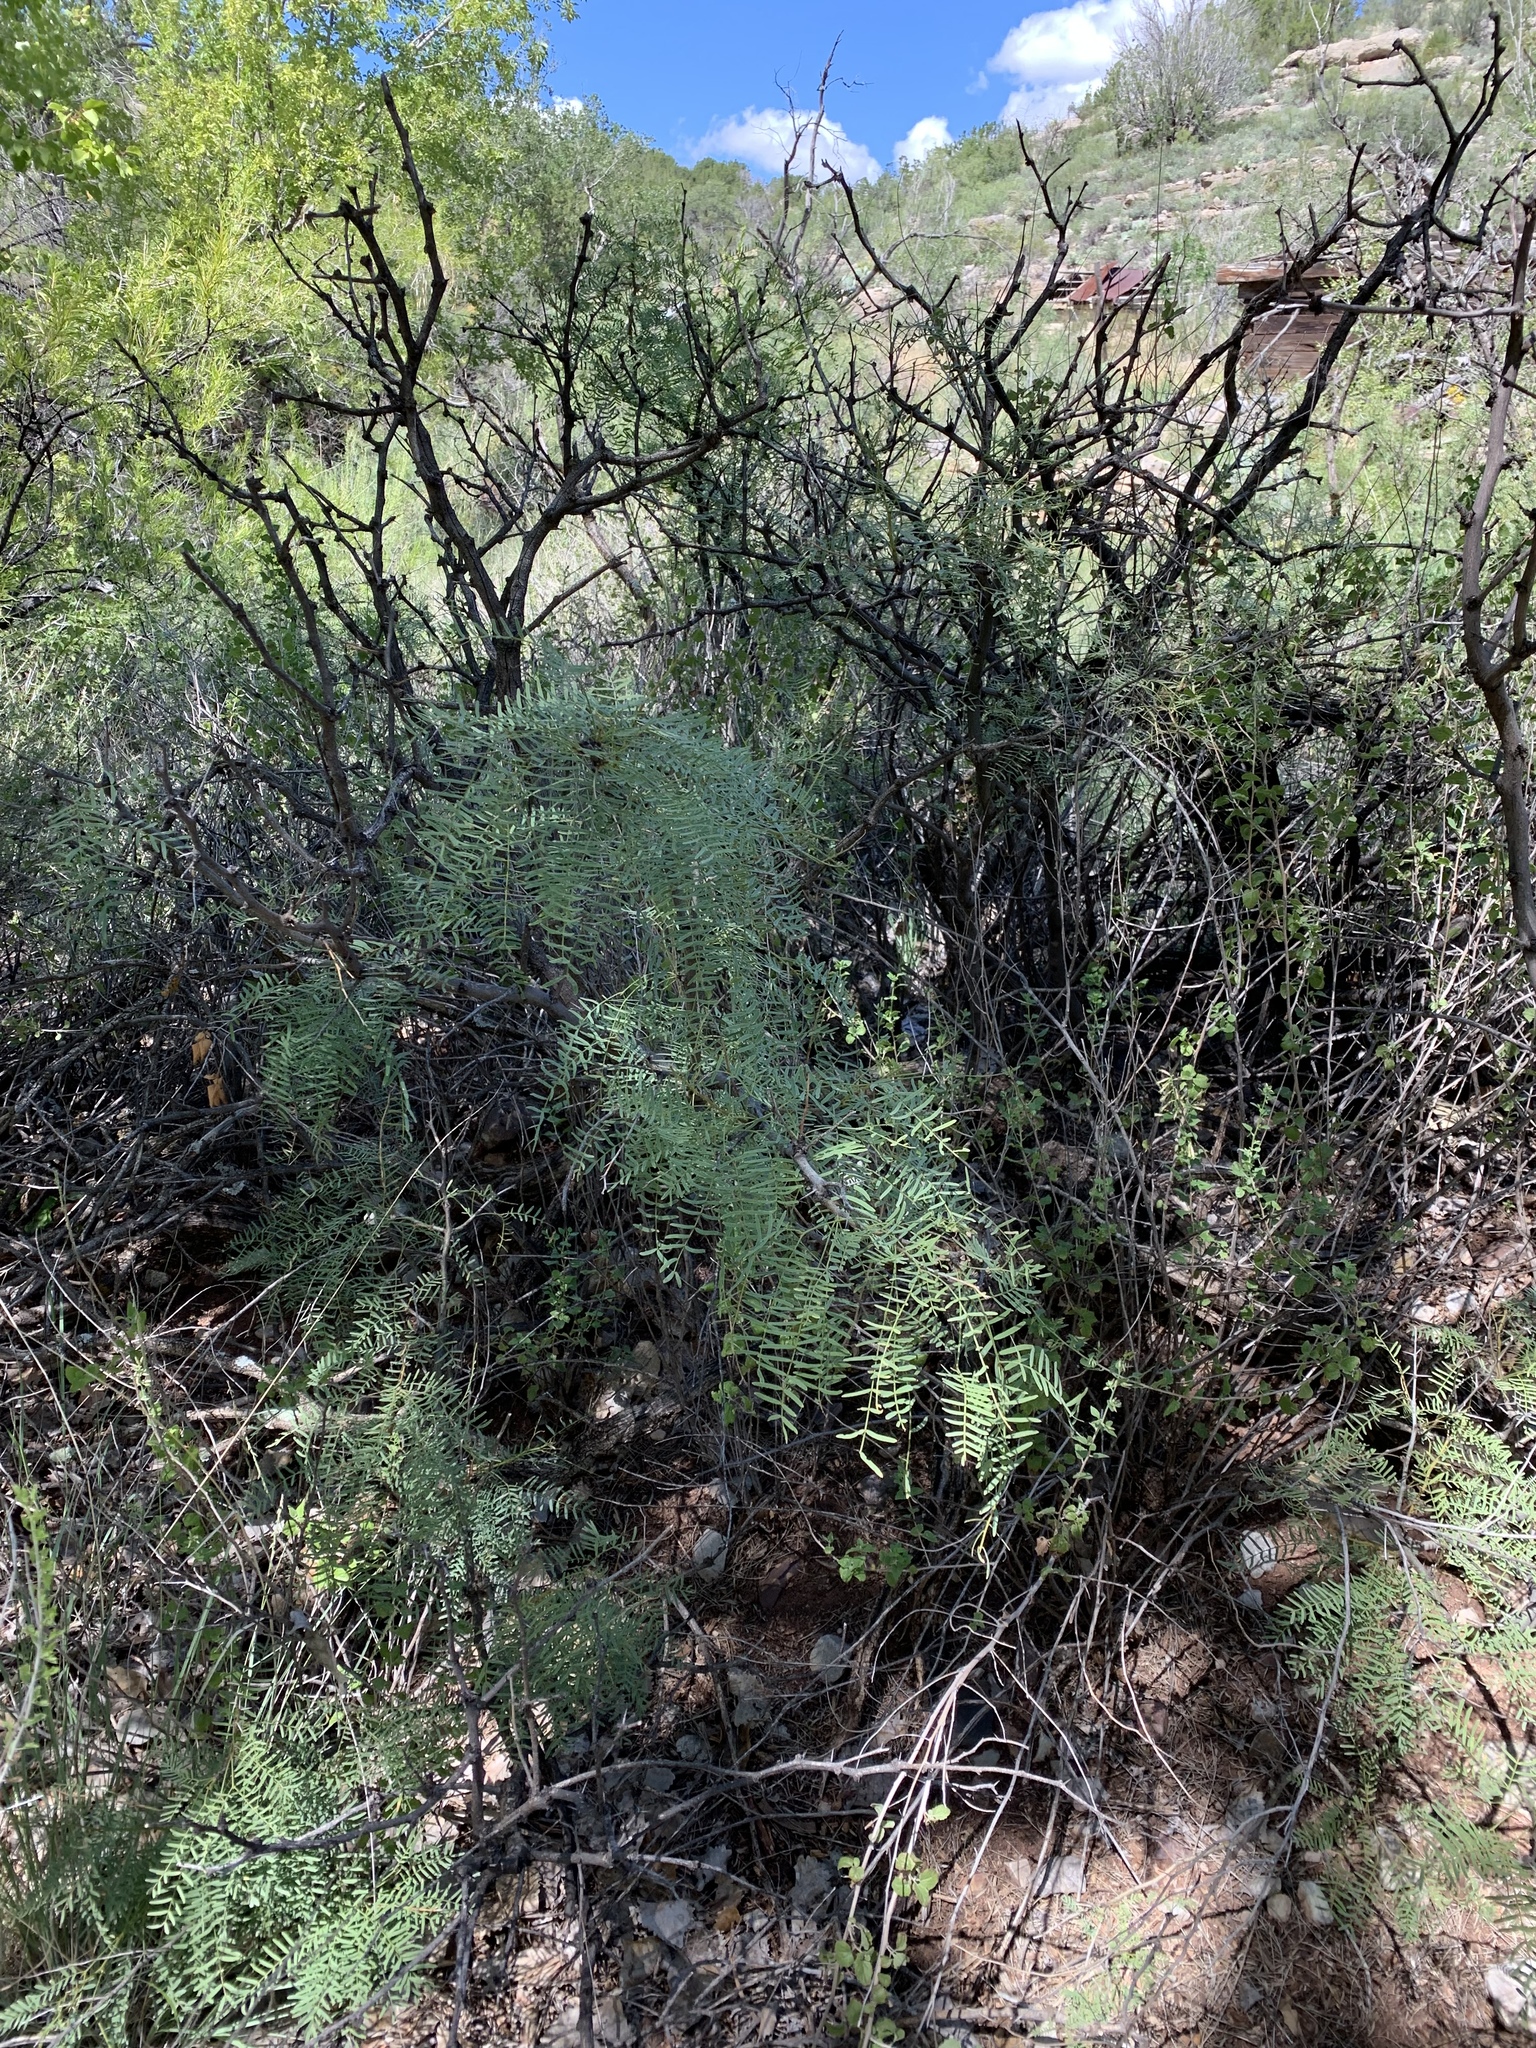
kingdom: Plantae
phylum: Tracheophyta
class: Magnoliopsida
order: Fabales
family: Fabaceae
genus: Prosopis
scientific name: Prosopis glandulosa
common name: Honey mesquite
